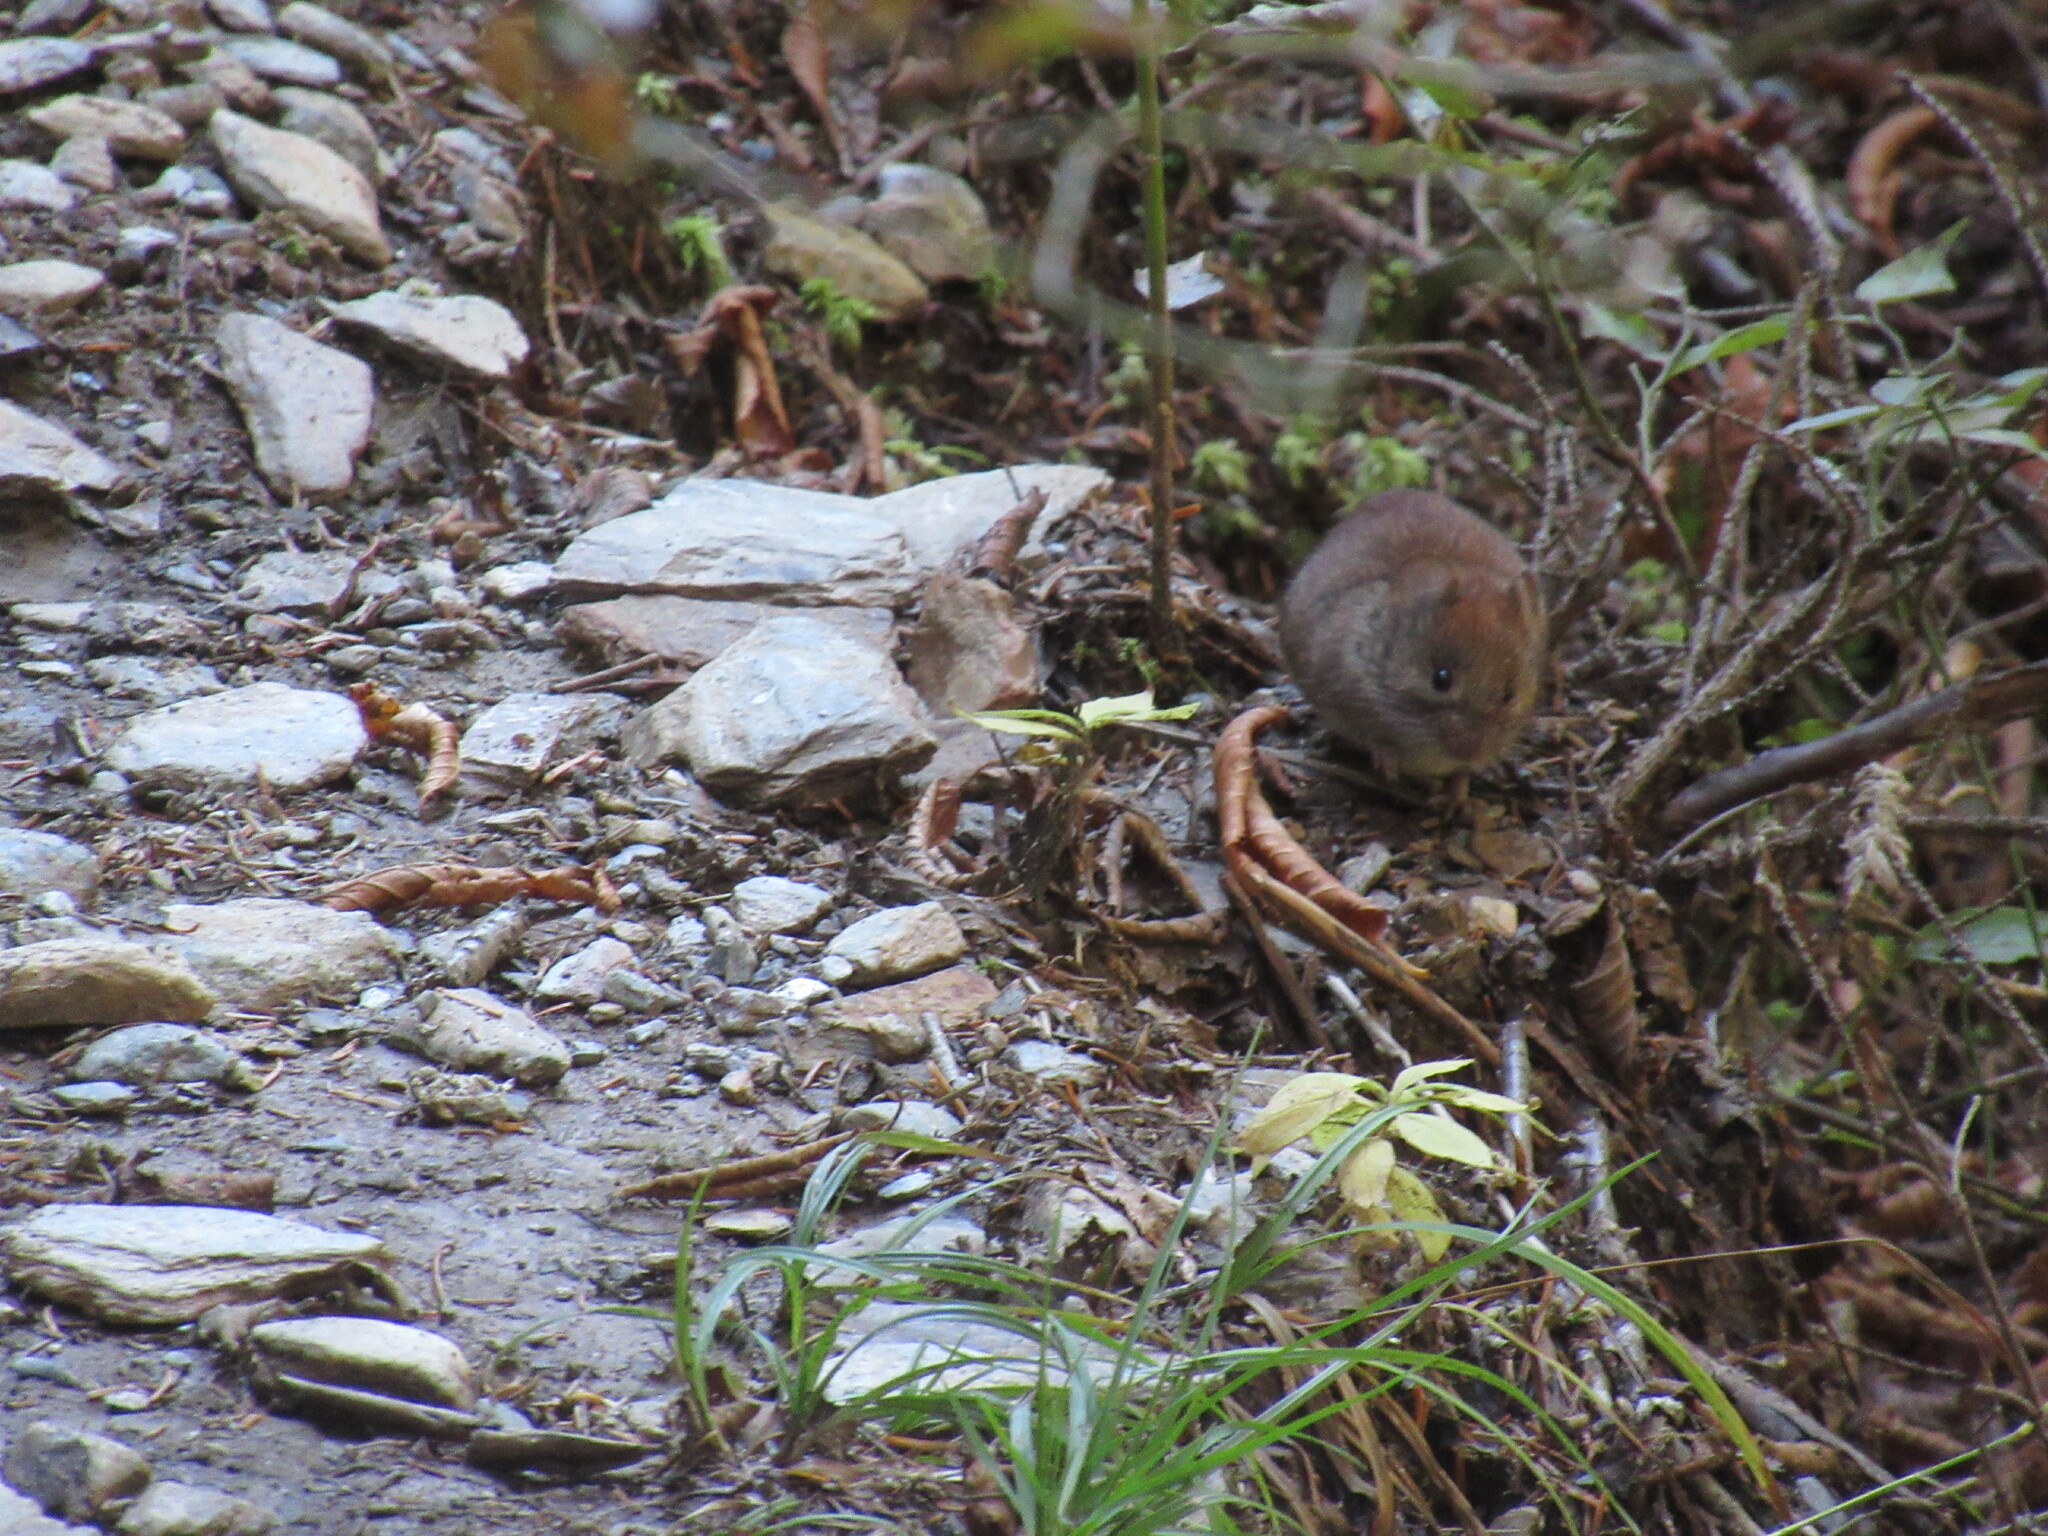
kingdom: Animalia
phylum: Chordata
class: Mammalia
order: Rodentia
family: Cricetidae
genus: Myodes
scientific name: Myodes gapperi
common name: Southern red-backed vole
